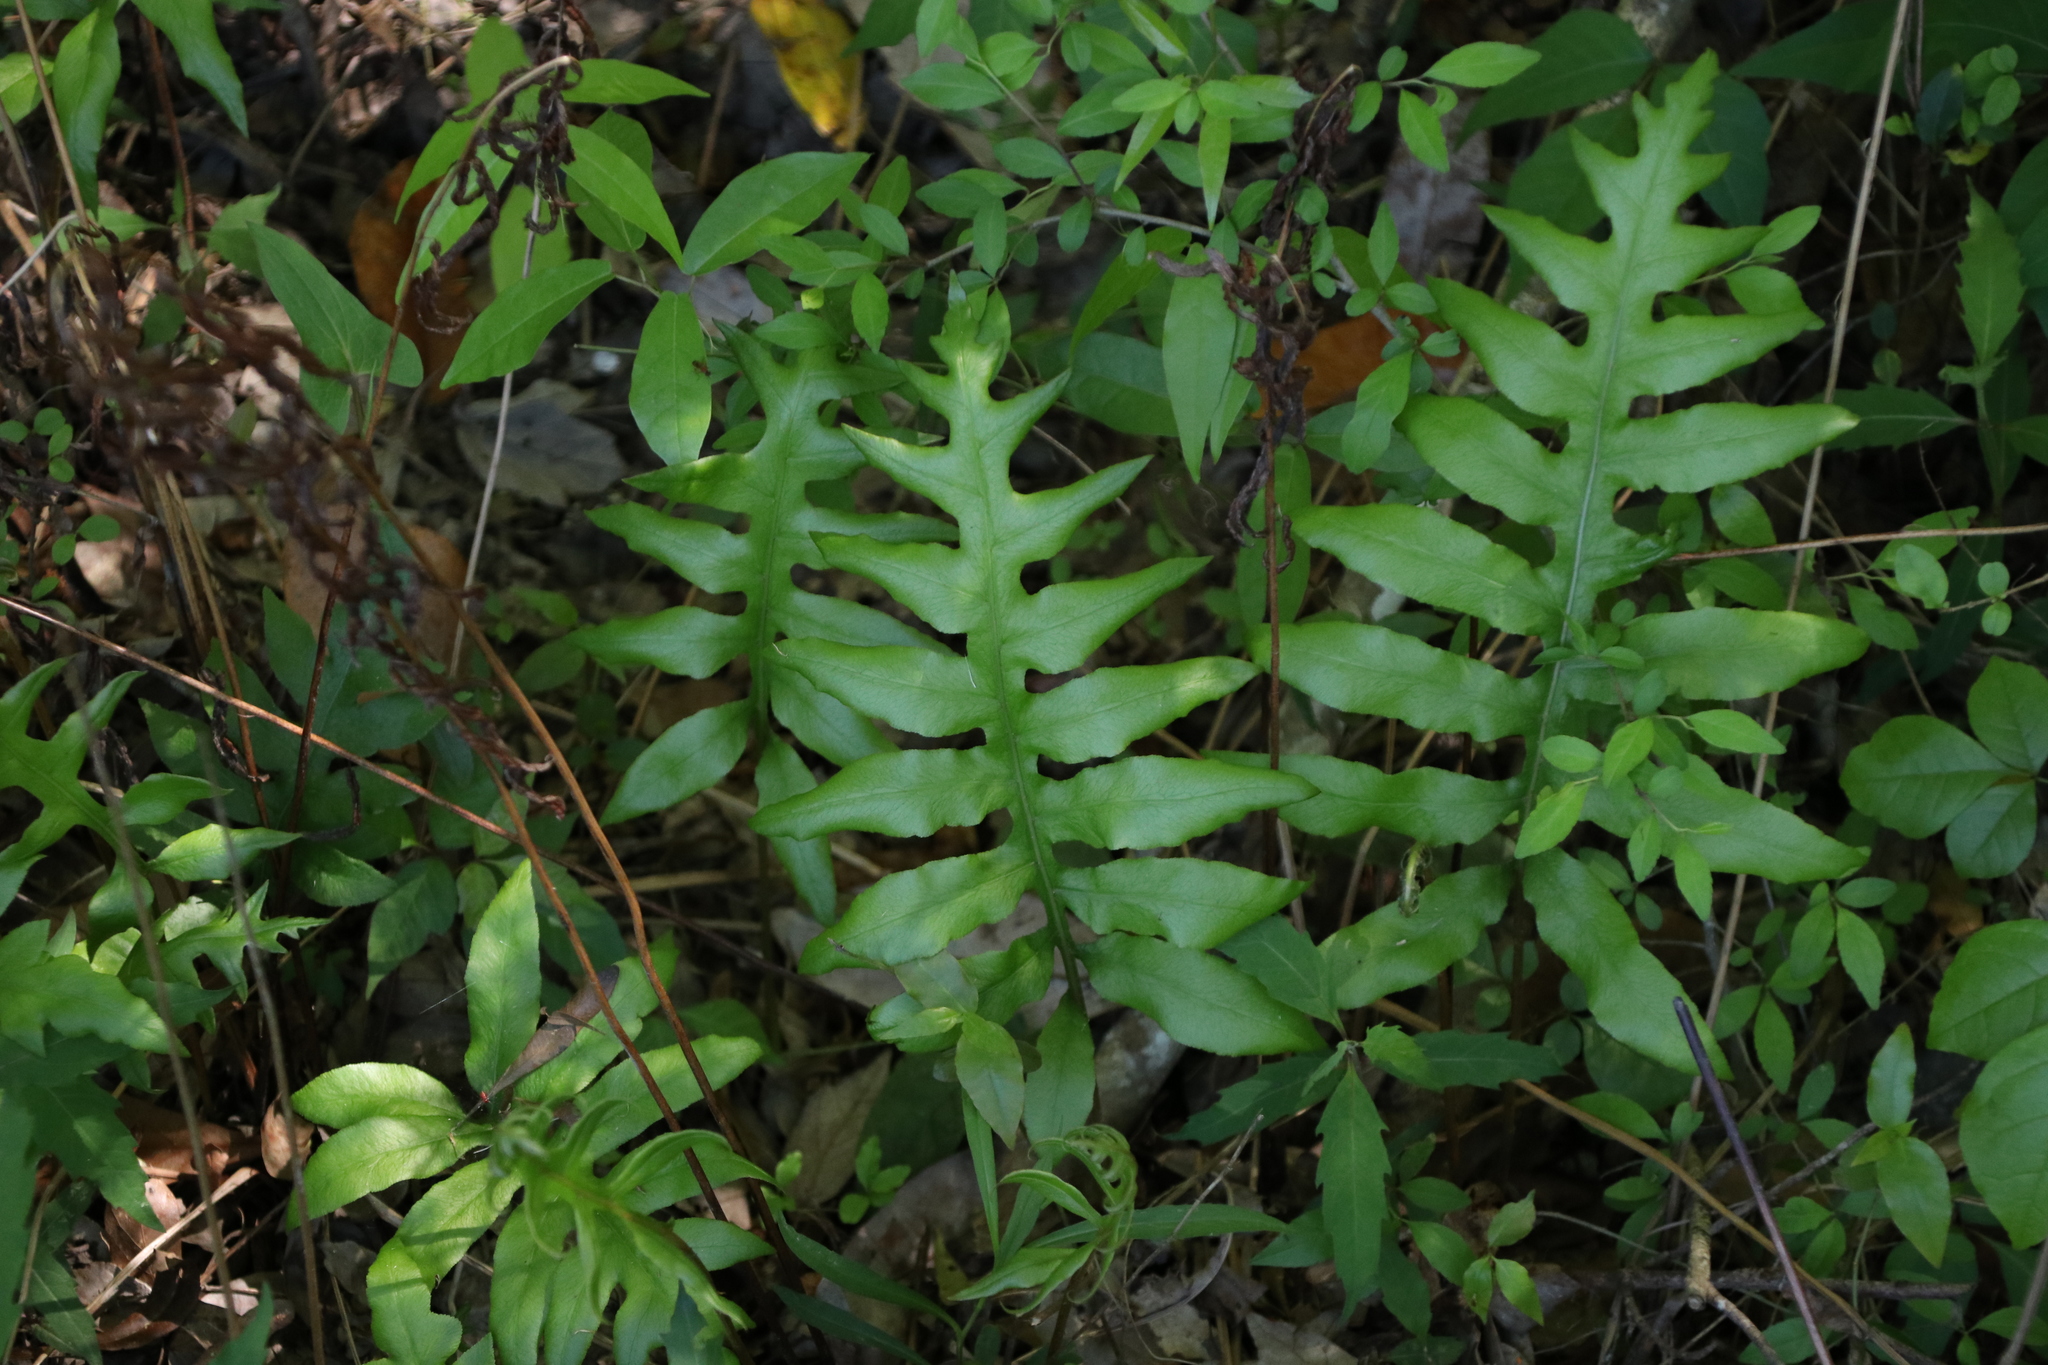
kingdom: Plantae
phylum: Tracheophyta
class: Polypodiopsida
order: Polypodiales
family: Blechnaceae
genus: Lorinseria
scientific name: Lorinseria areolata
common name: Dwarf chain fern
